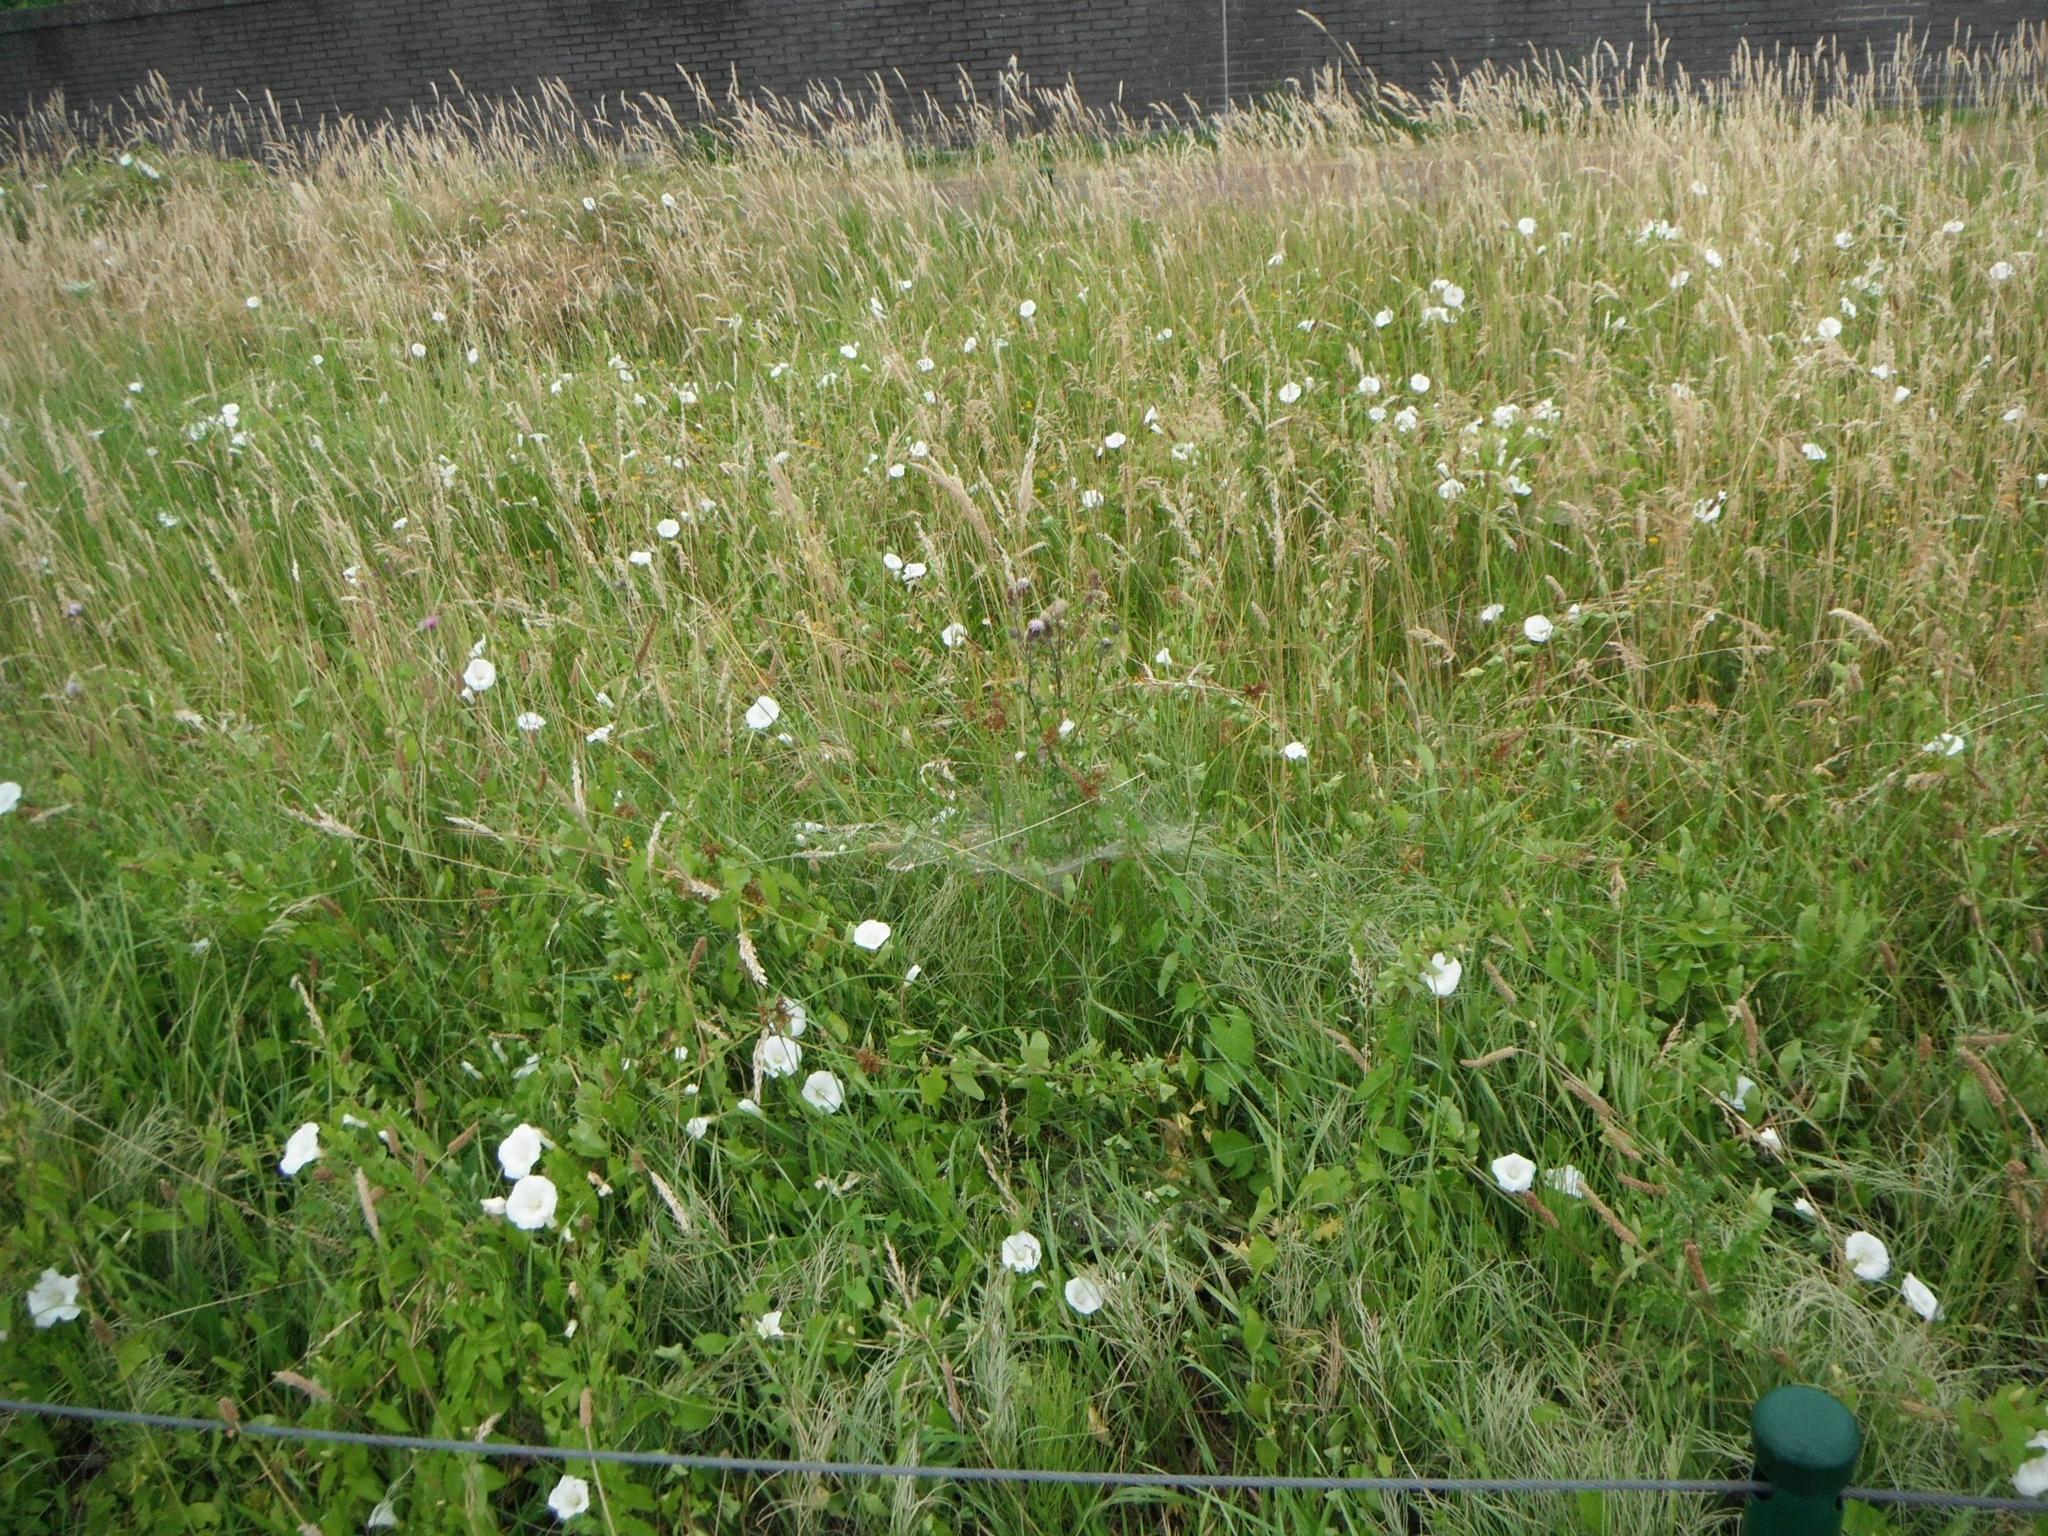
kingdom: Plantae
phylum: Tracheophyta
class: Magnoliopsida
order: Solanales
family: Convolvulaceae
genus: Calystegia
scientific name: Calystegia sepium
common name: Hedge bindweed
